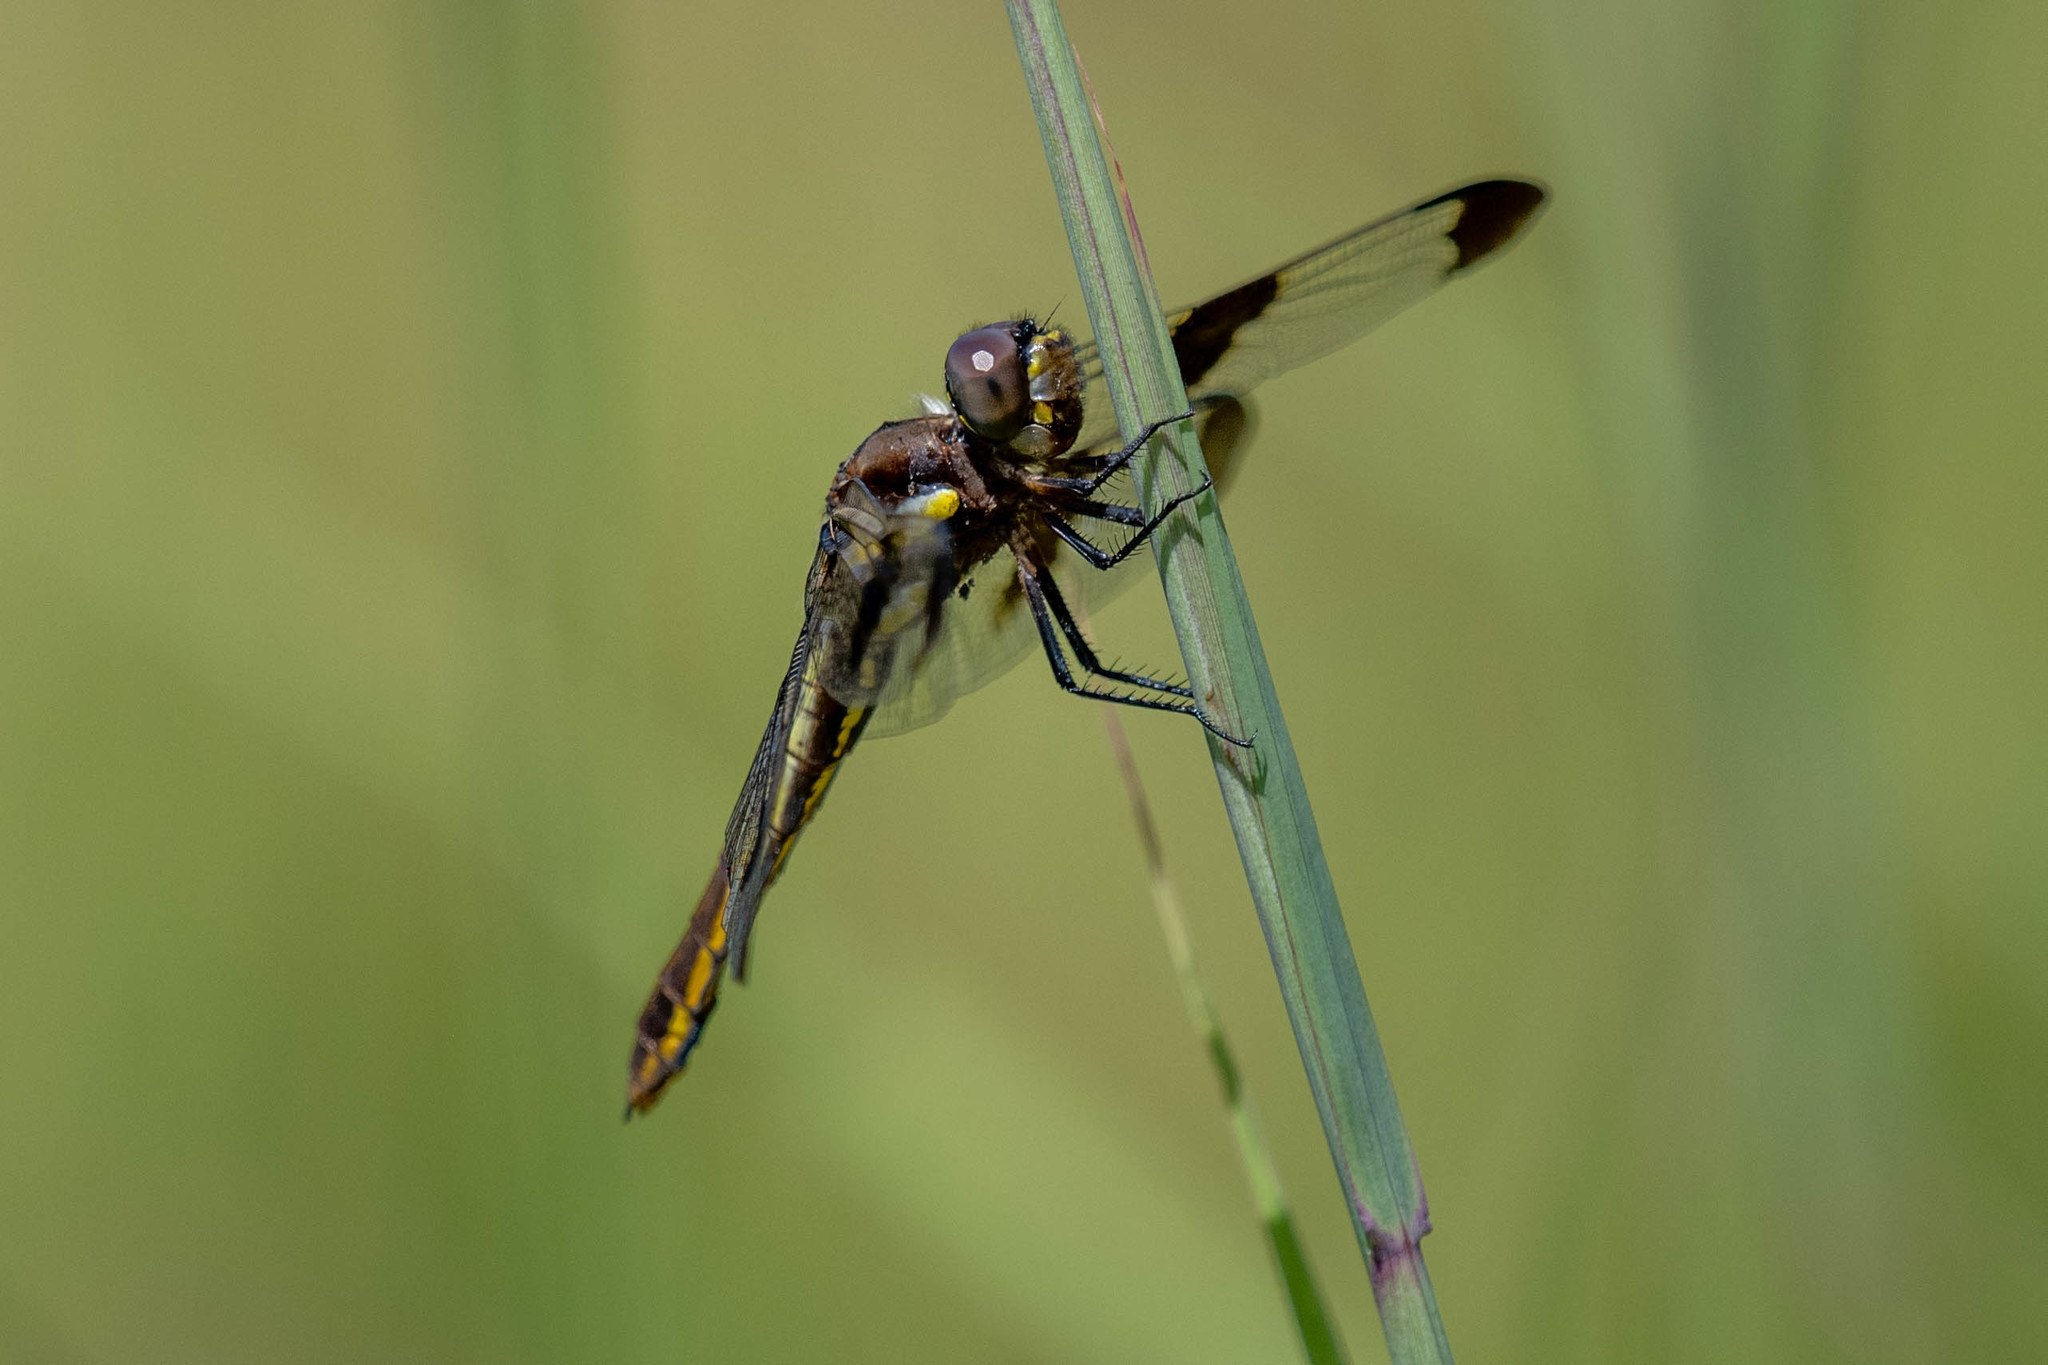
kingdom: Animalia
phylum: Arthropoda
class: Insecta
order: Odonata
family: Libellulidae
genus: Libellula
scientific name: Libellula pulchella
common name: Twelve-spotted skimmer
